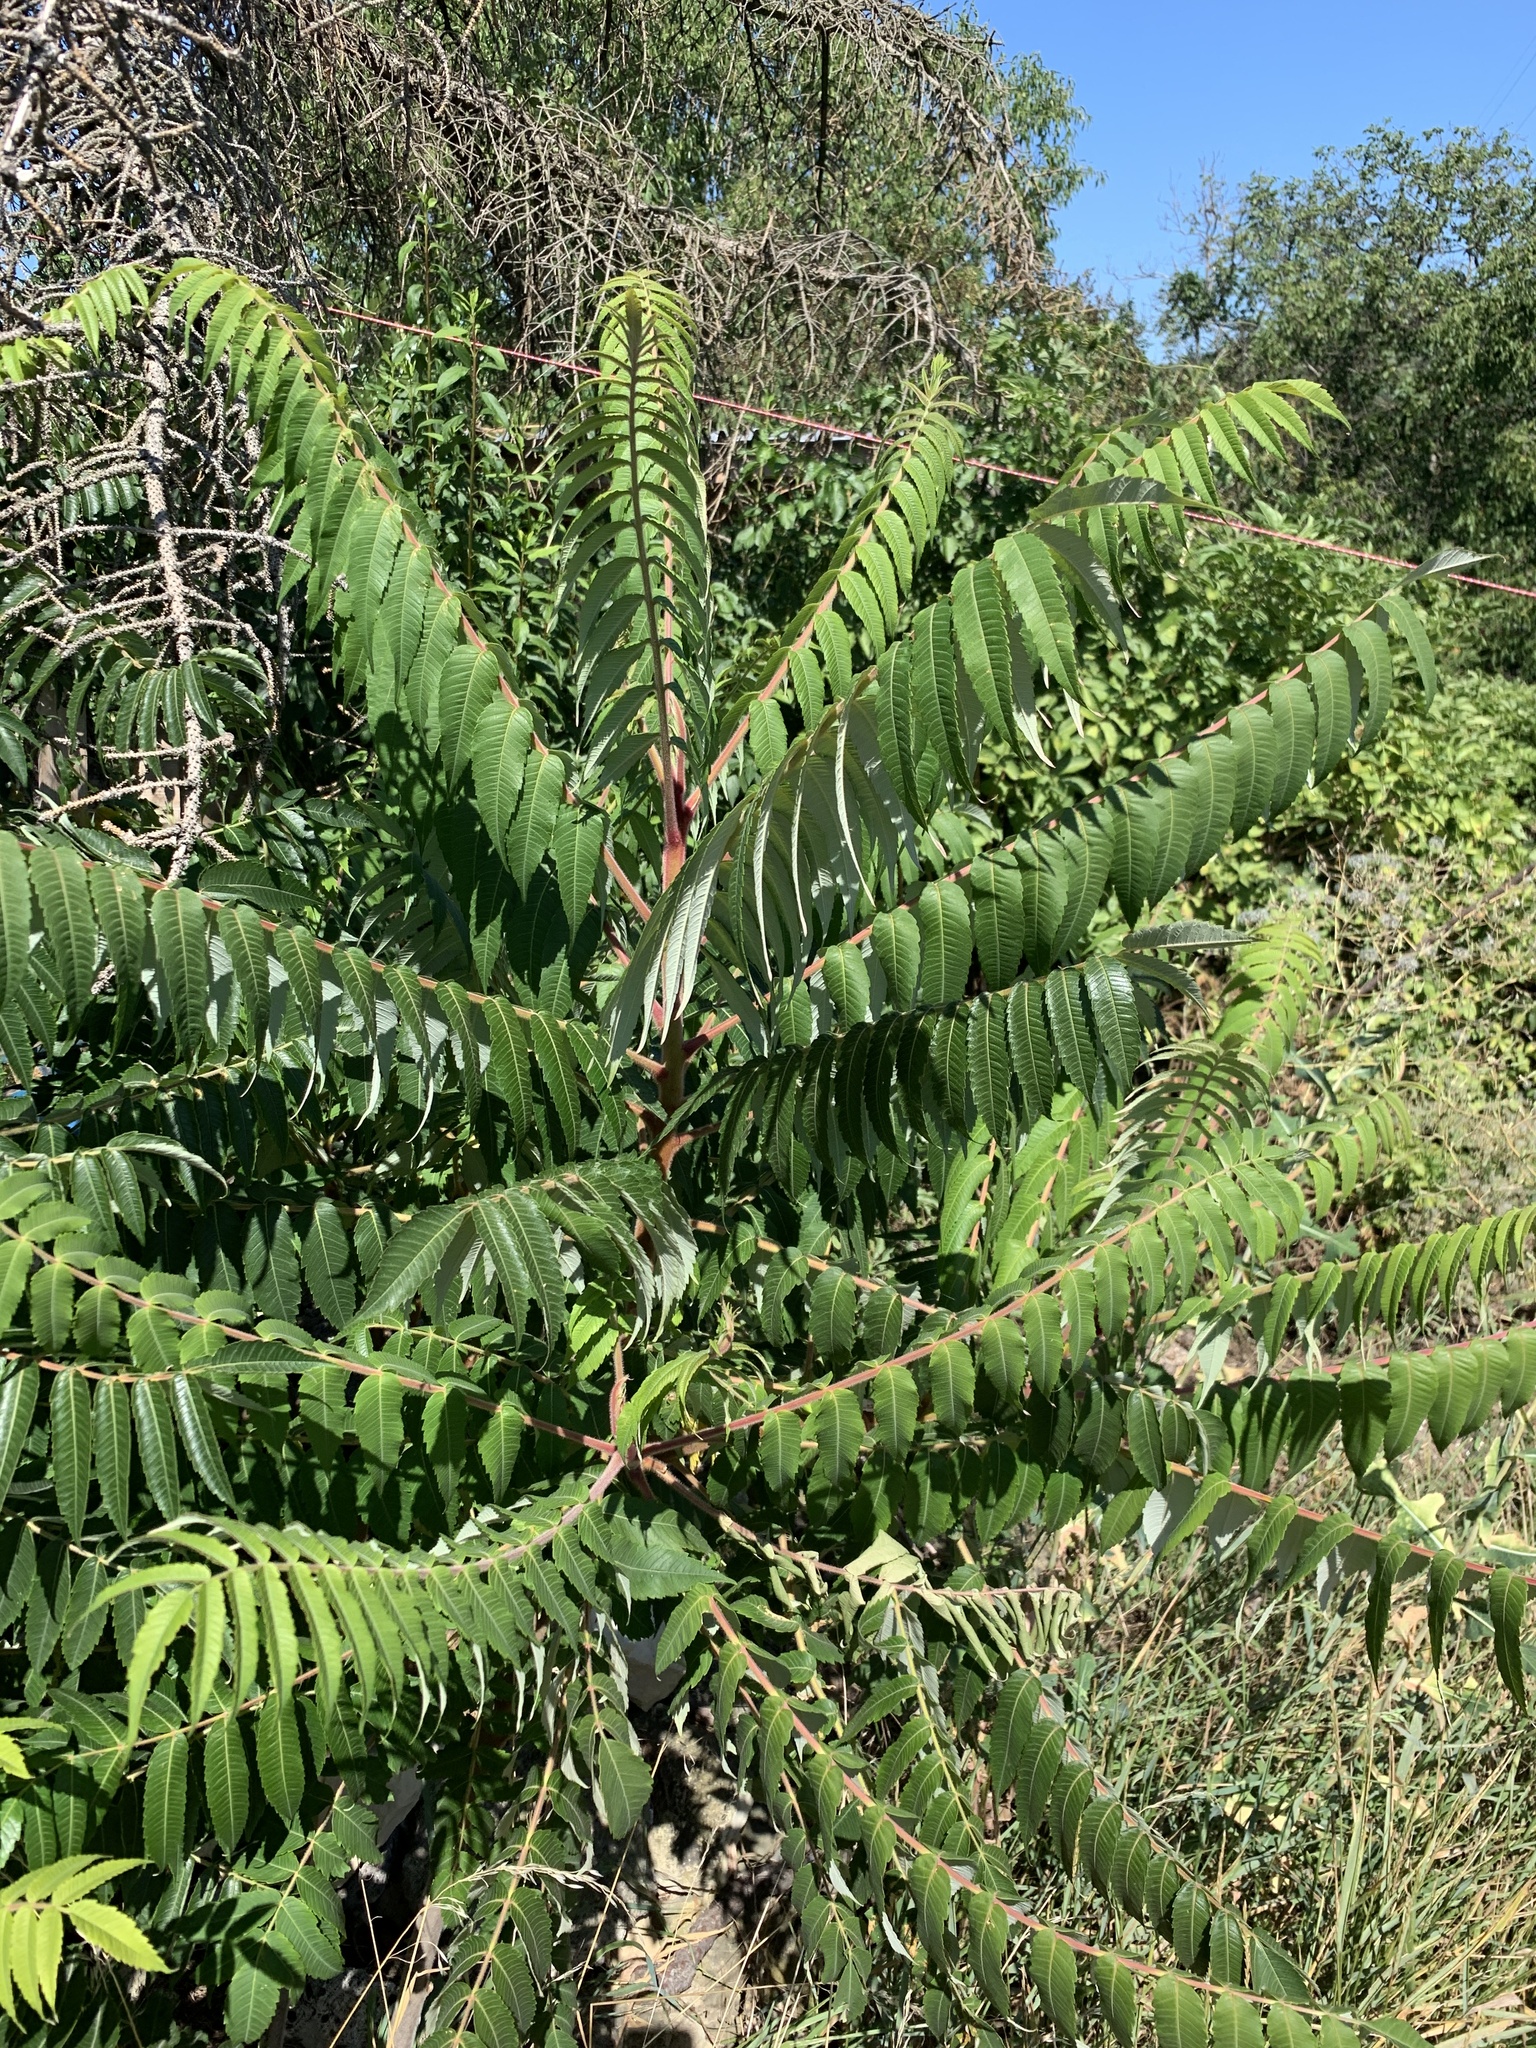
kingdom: Plantae
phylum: Tracheophyta
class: Magnoliopsida
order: Sapindales
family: Anacardiaceae
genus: Rhus
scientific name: Rhus typhina
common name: Staghorn sumac
